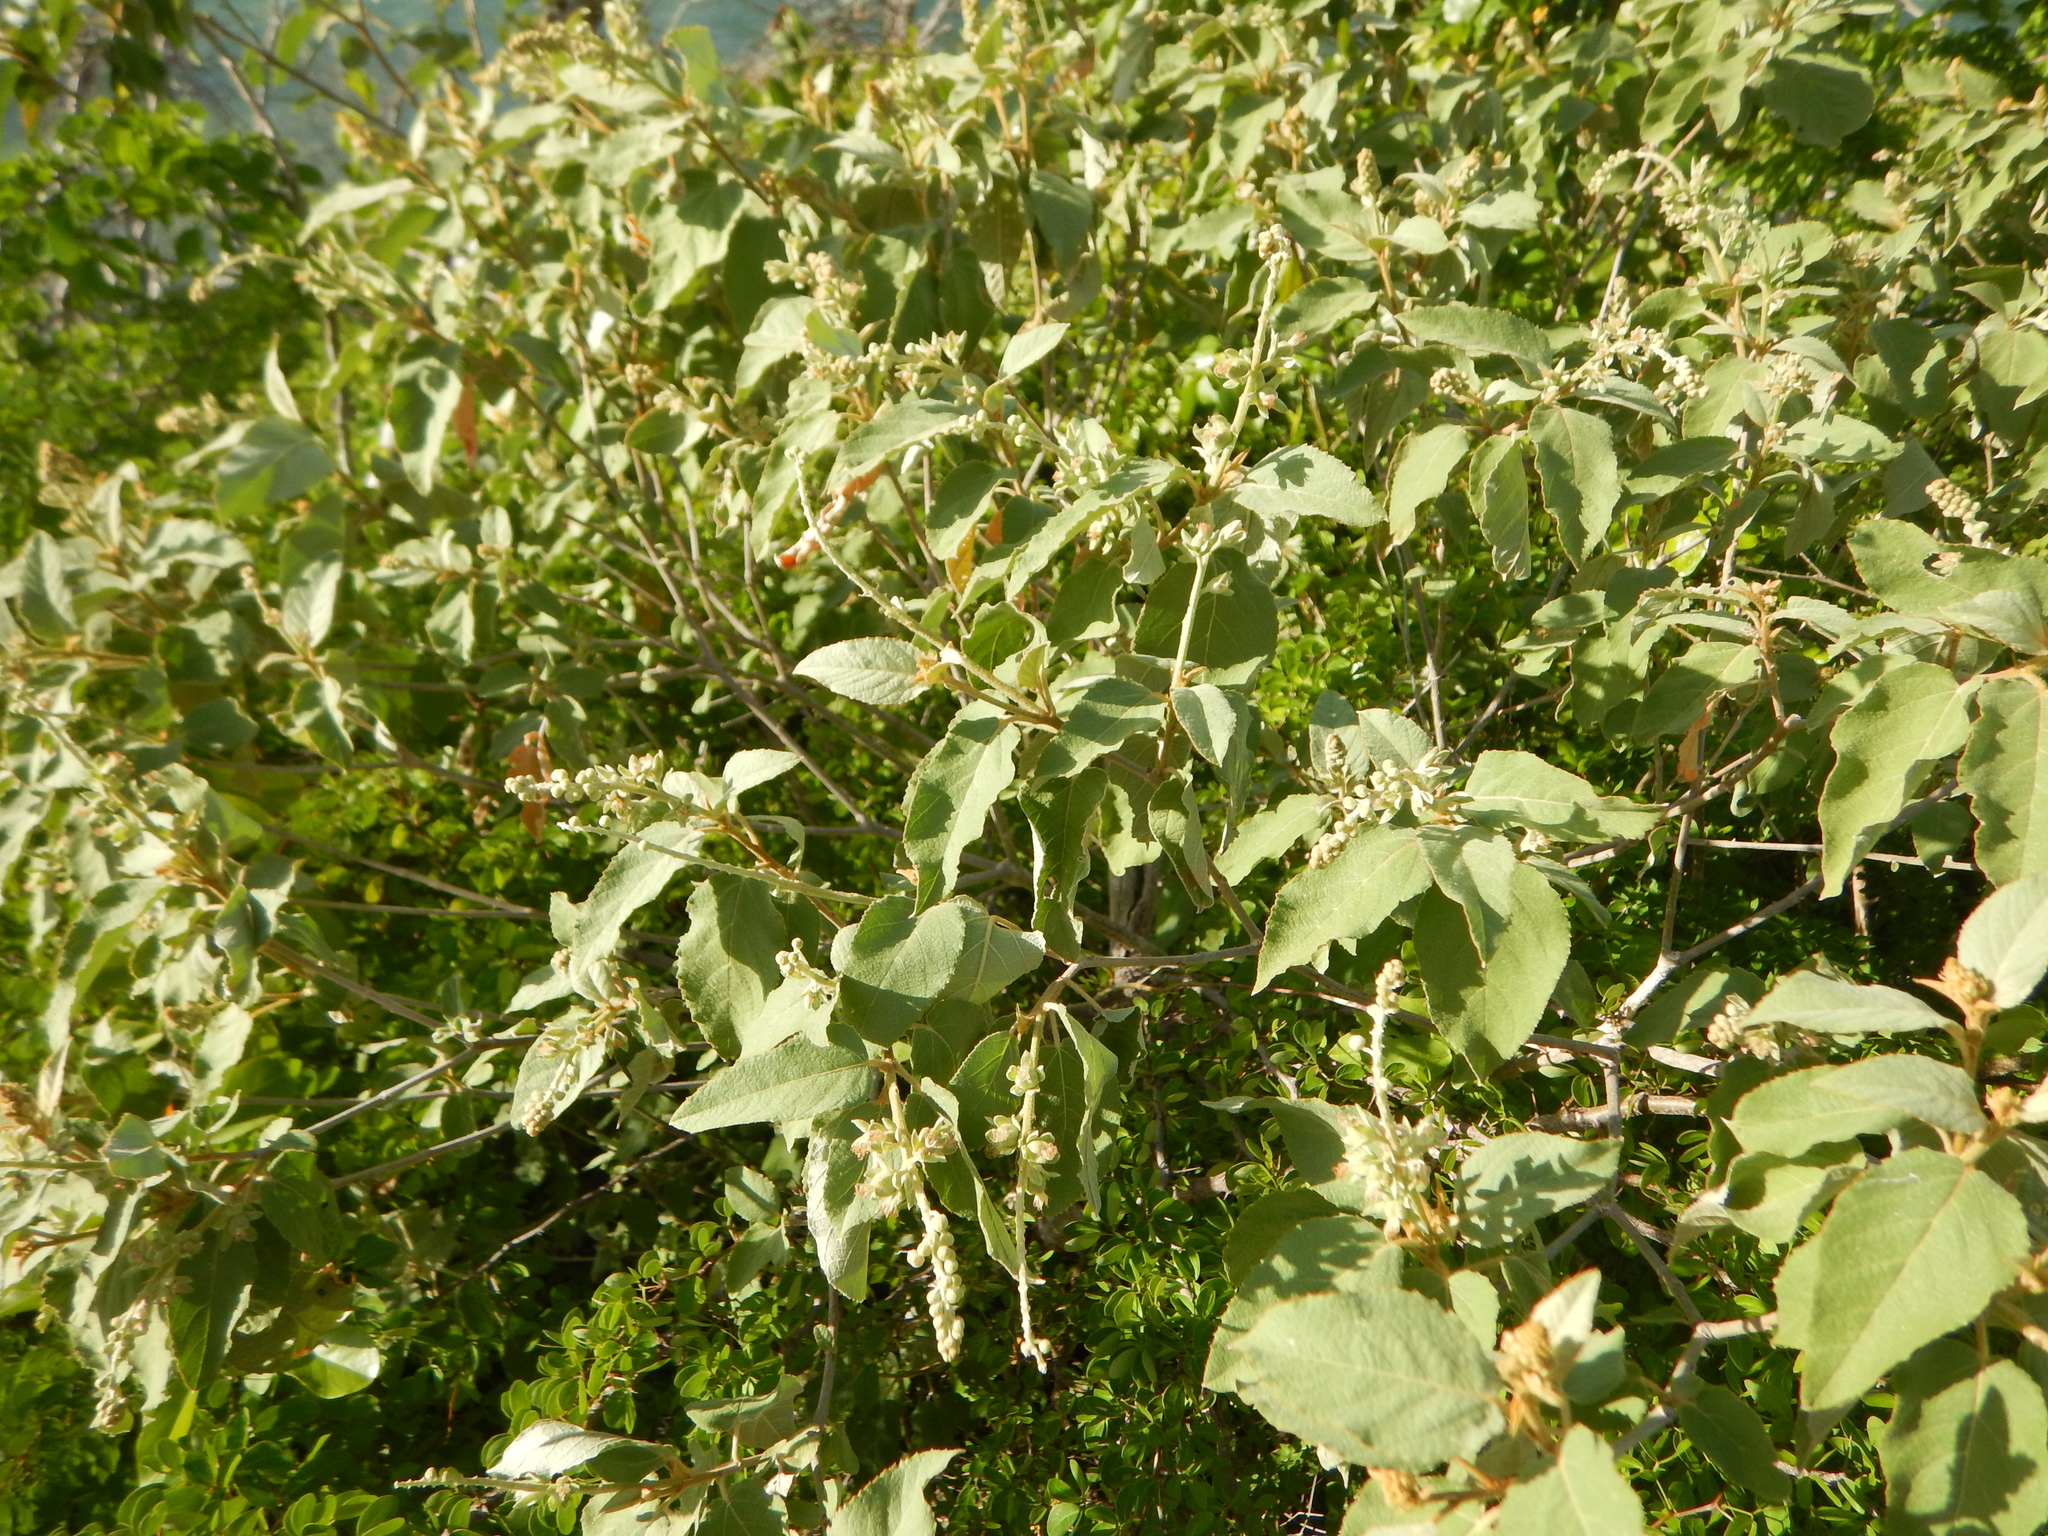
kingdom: Plantae
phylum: Tracheophyta
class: Magnoliopsida
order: Malpighiales
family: Euphorbiaceae
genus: Croton
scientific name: Croton astroites
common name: Wild marrow
